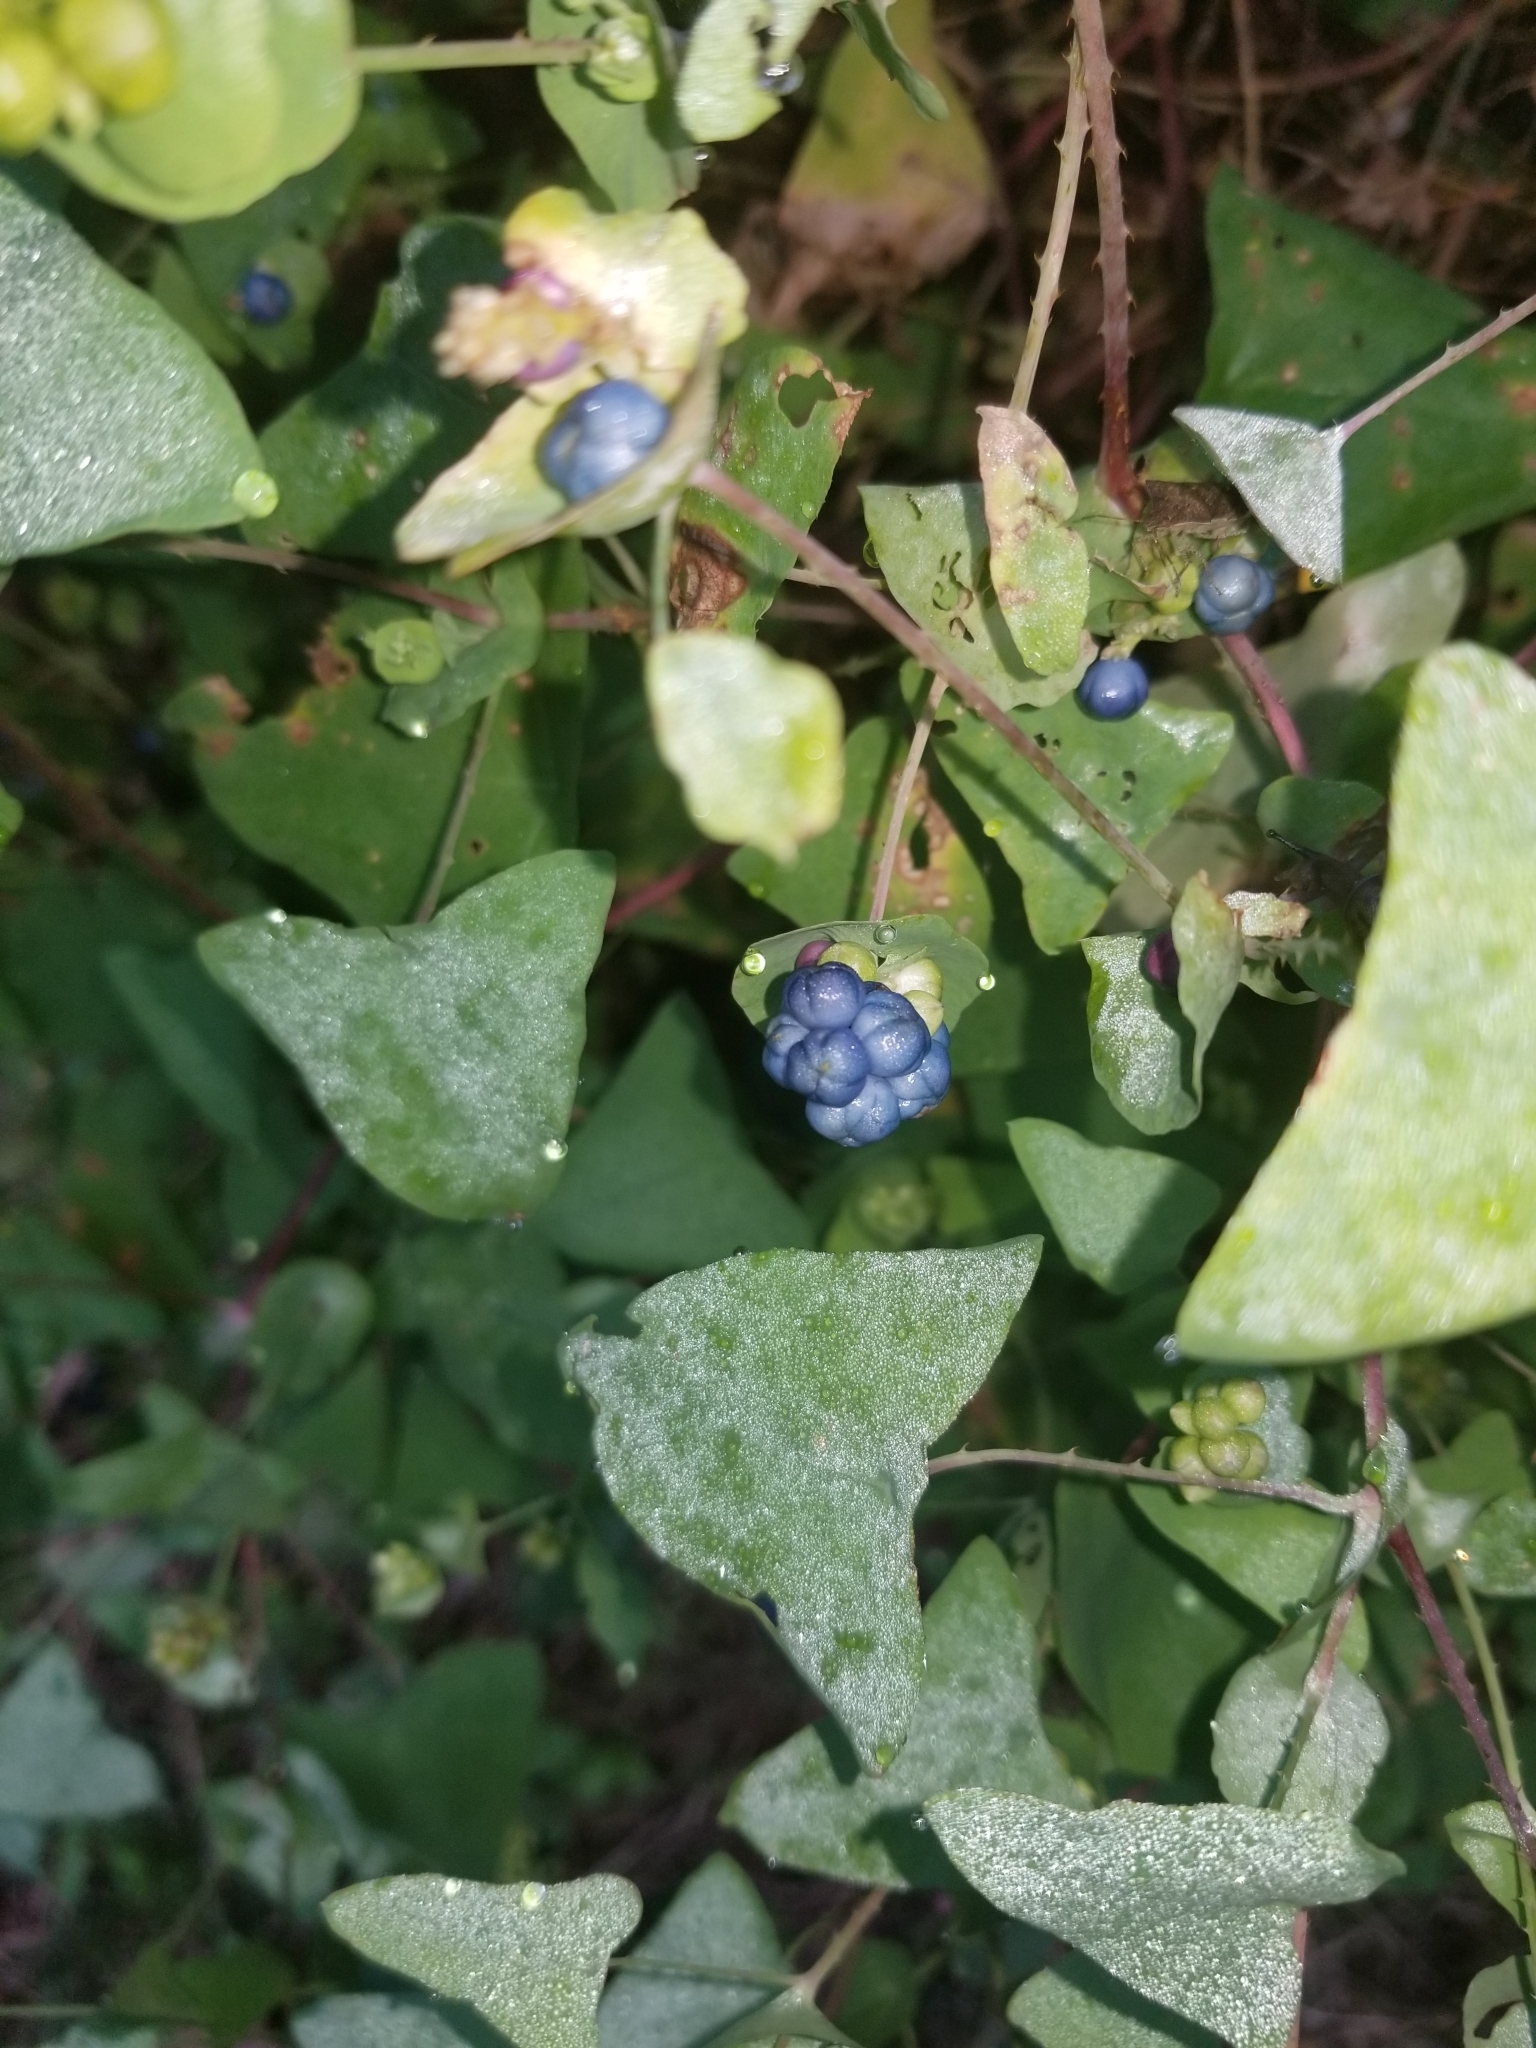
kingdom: Plantae
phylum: Tracheophyta
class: Magnoliopsida
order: Caryophyllales
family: Polygonaceae
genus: Persicaria
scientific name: Persicaria perfoliata
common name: Asiatic tearthumb
